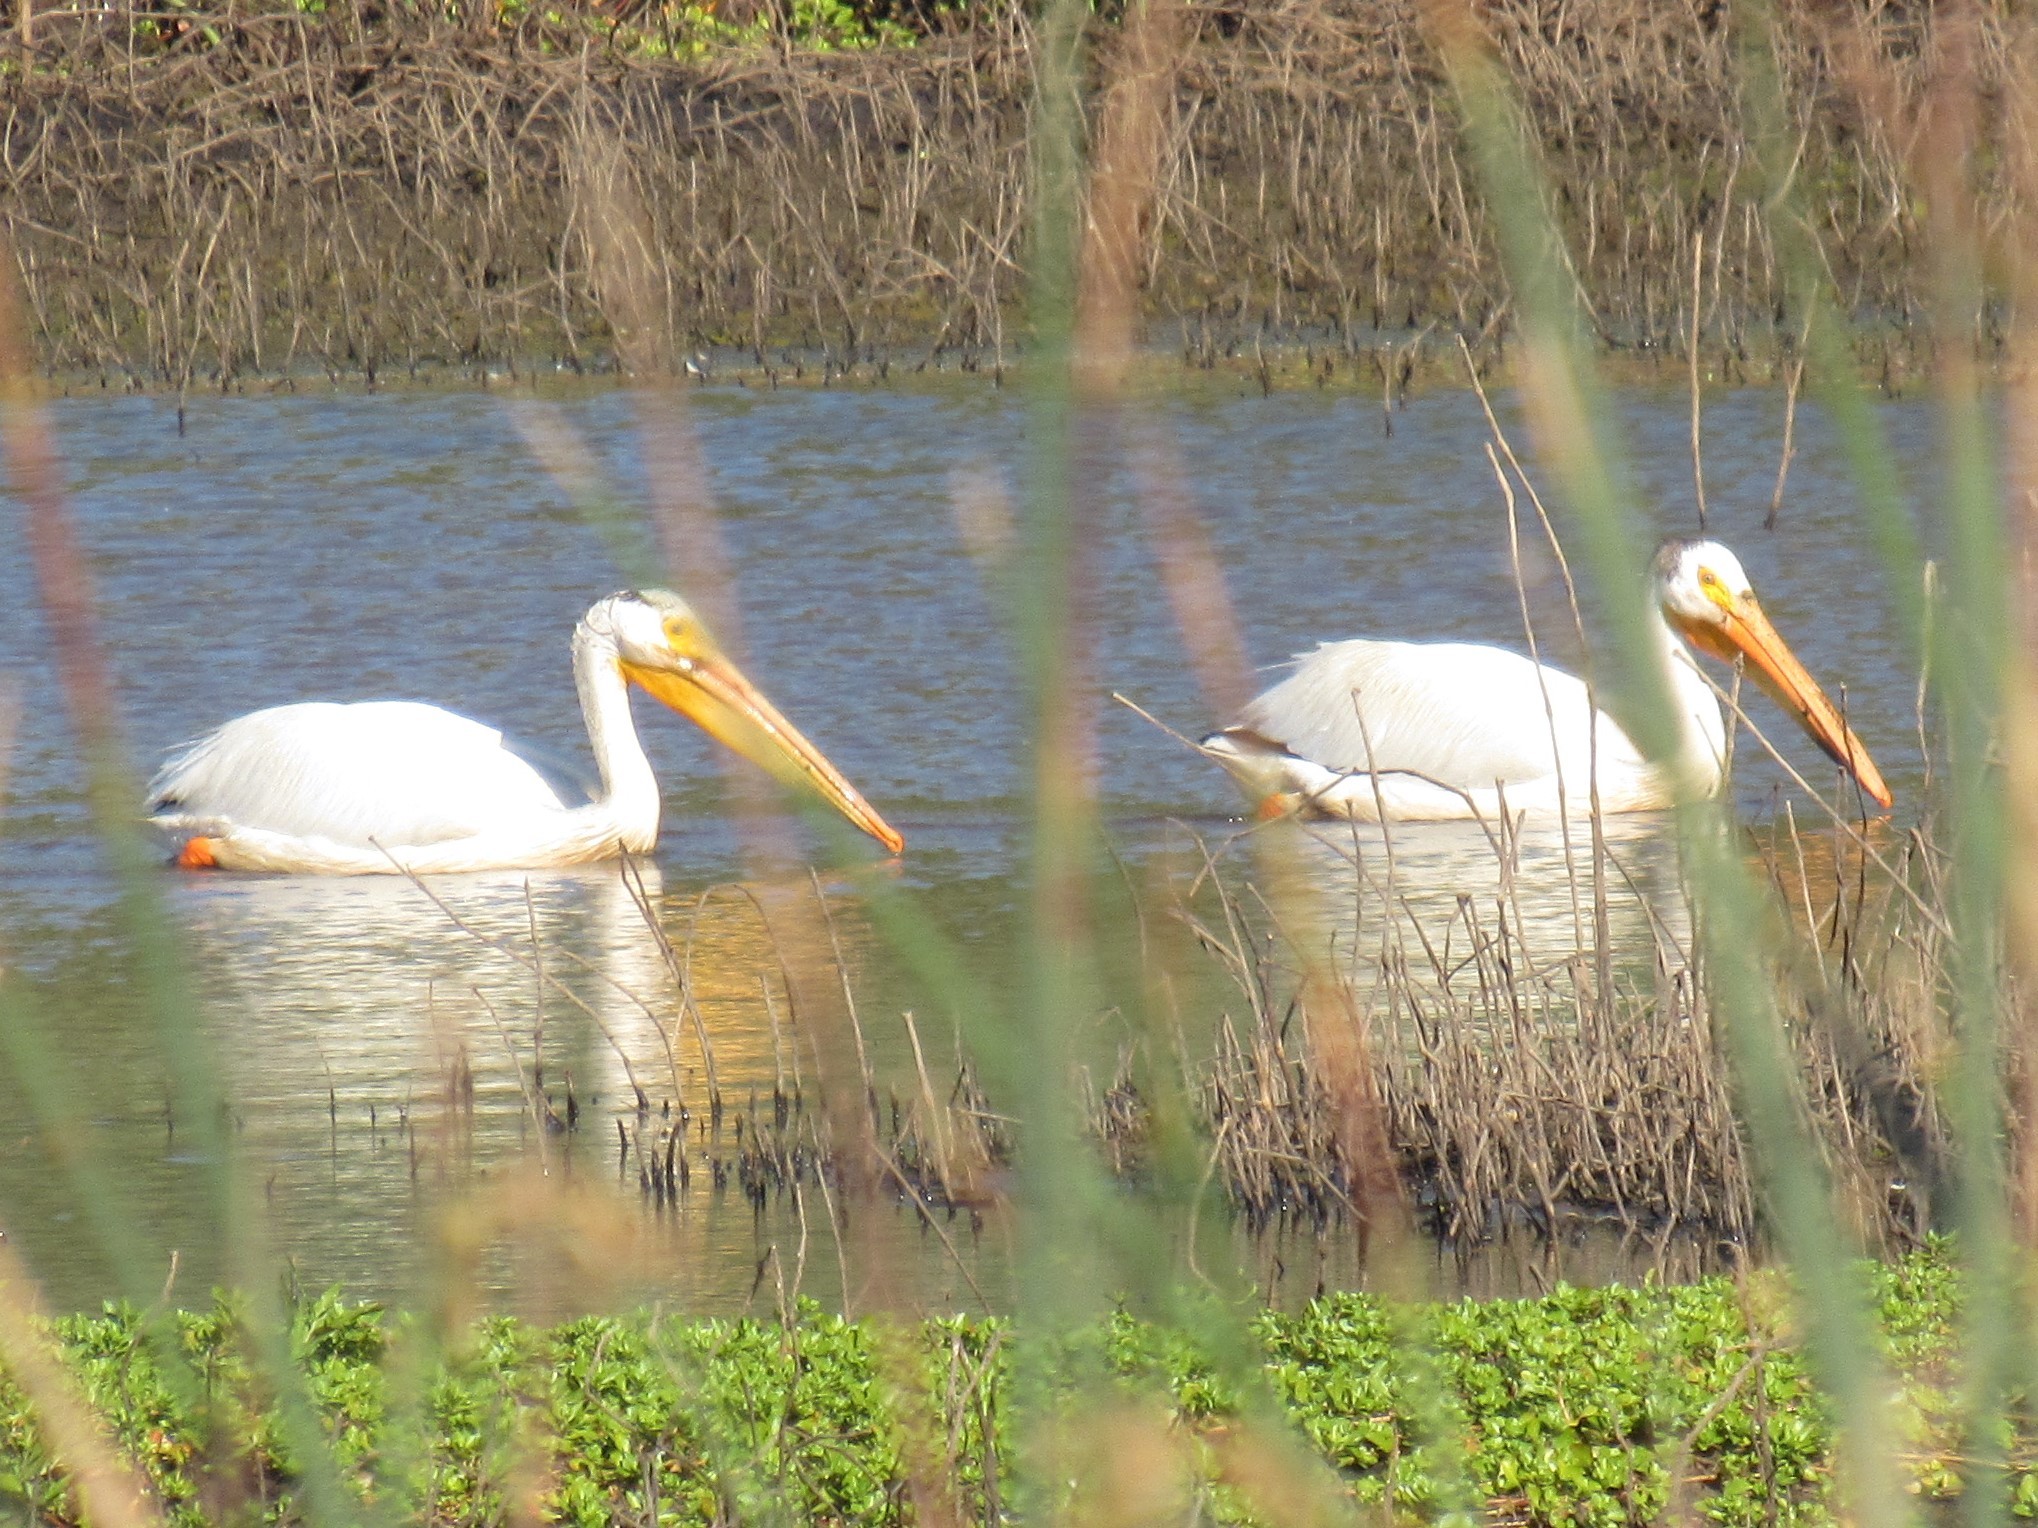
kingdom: Animalia
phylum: Chordata
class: Aves
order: Pelecaniformes
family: Pelecanidae
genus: Pelecanus
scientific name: Pelecanus erythrorhynchos
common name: American white pelican
